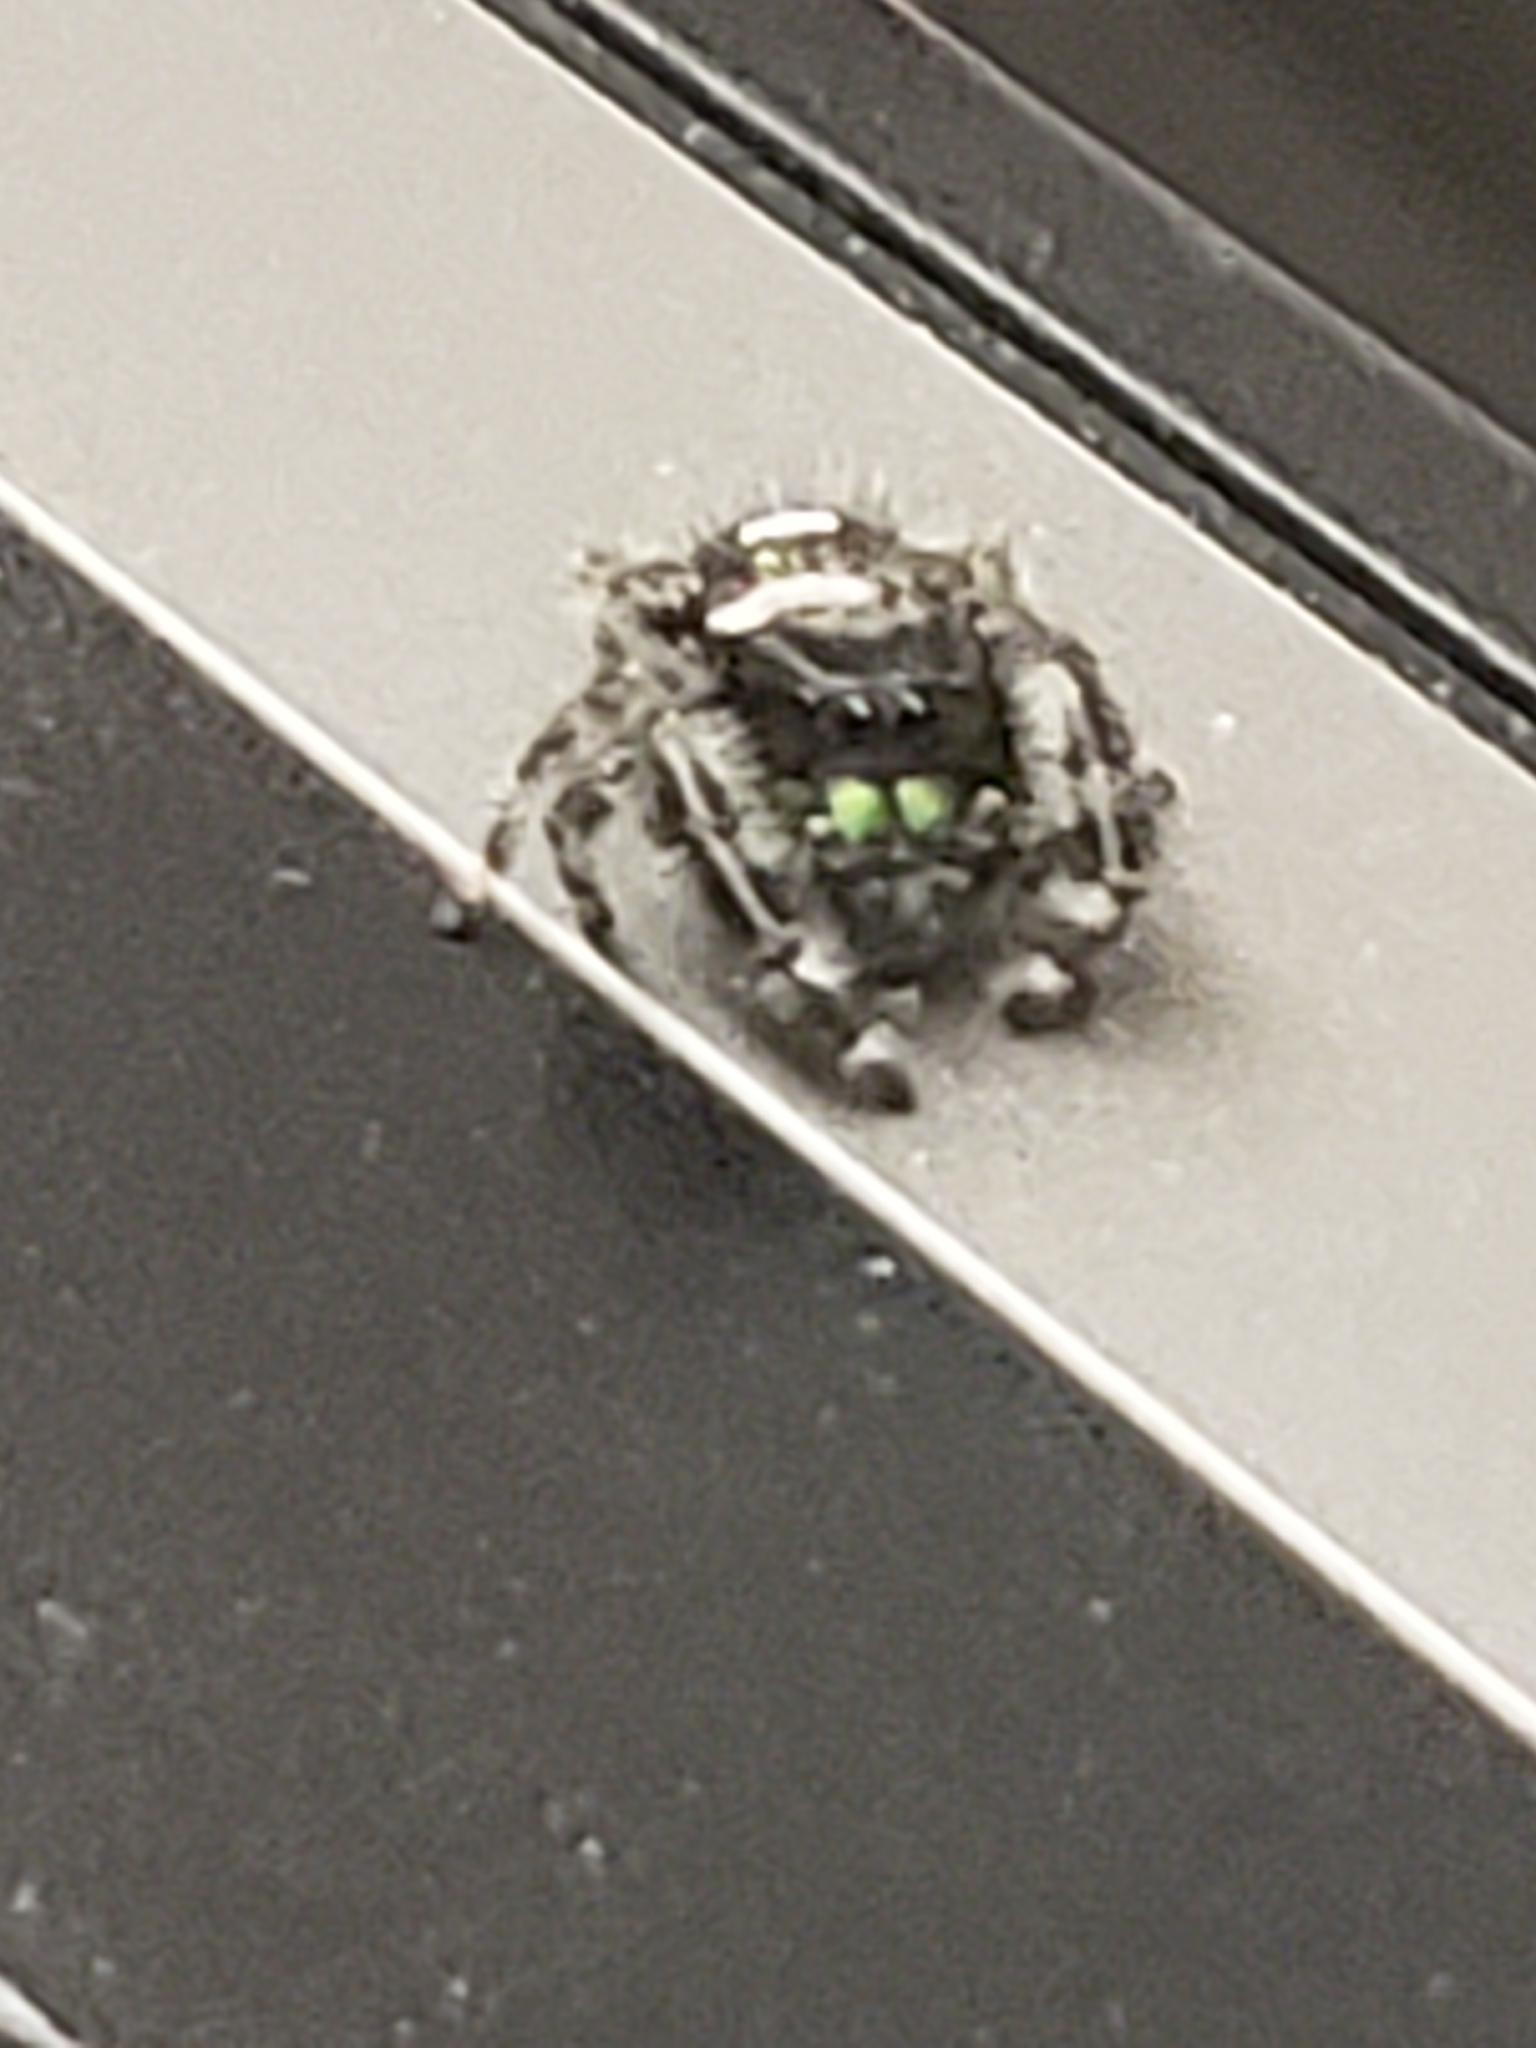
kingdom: Animalia
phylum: Arthropoda
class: Arachnida
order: Araneae
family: Salticidae
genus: Phidippus
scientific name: Phidippus audax
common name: Bold jumper
